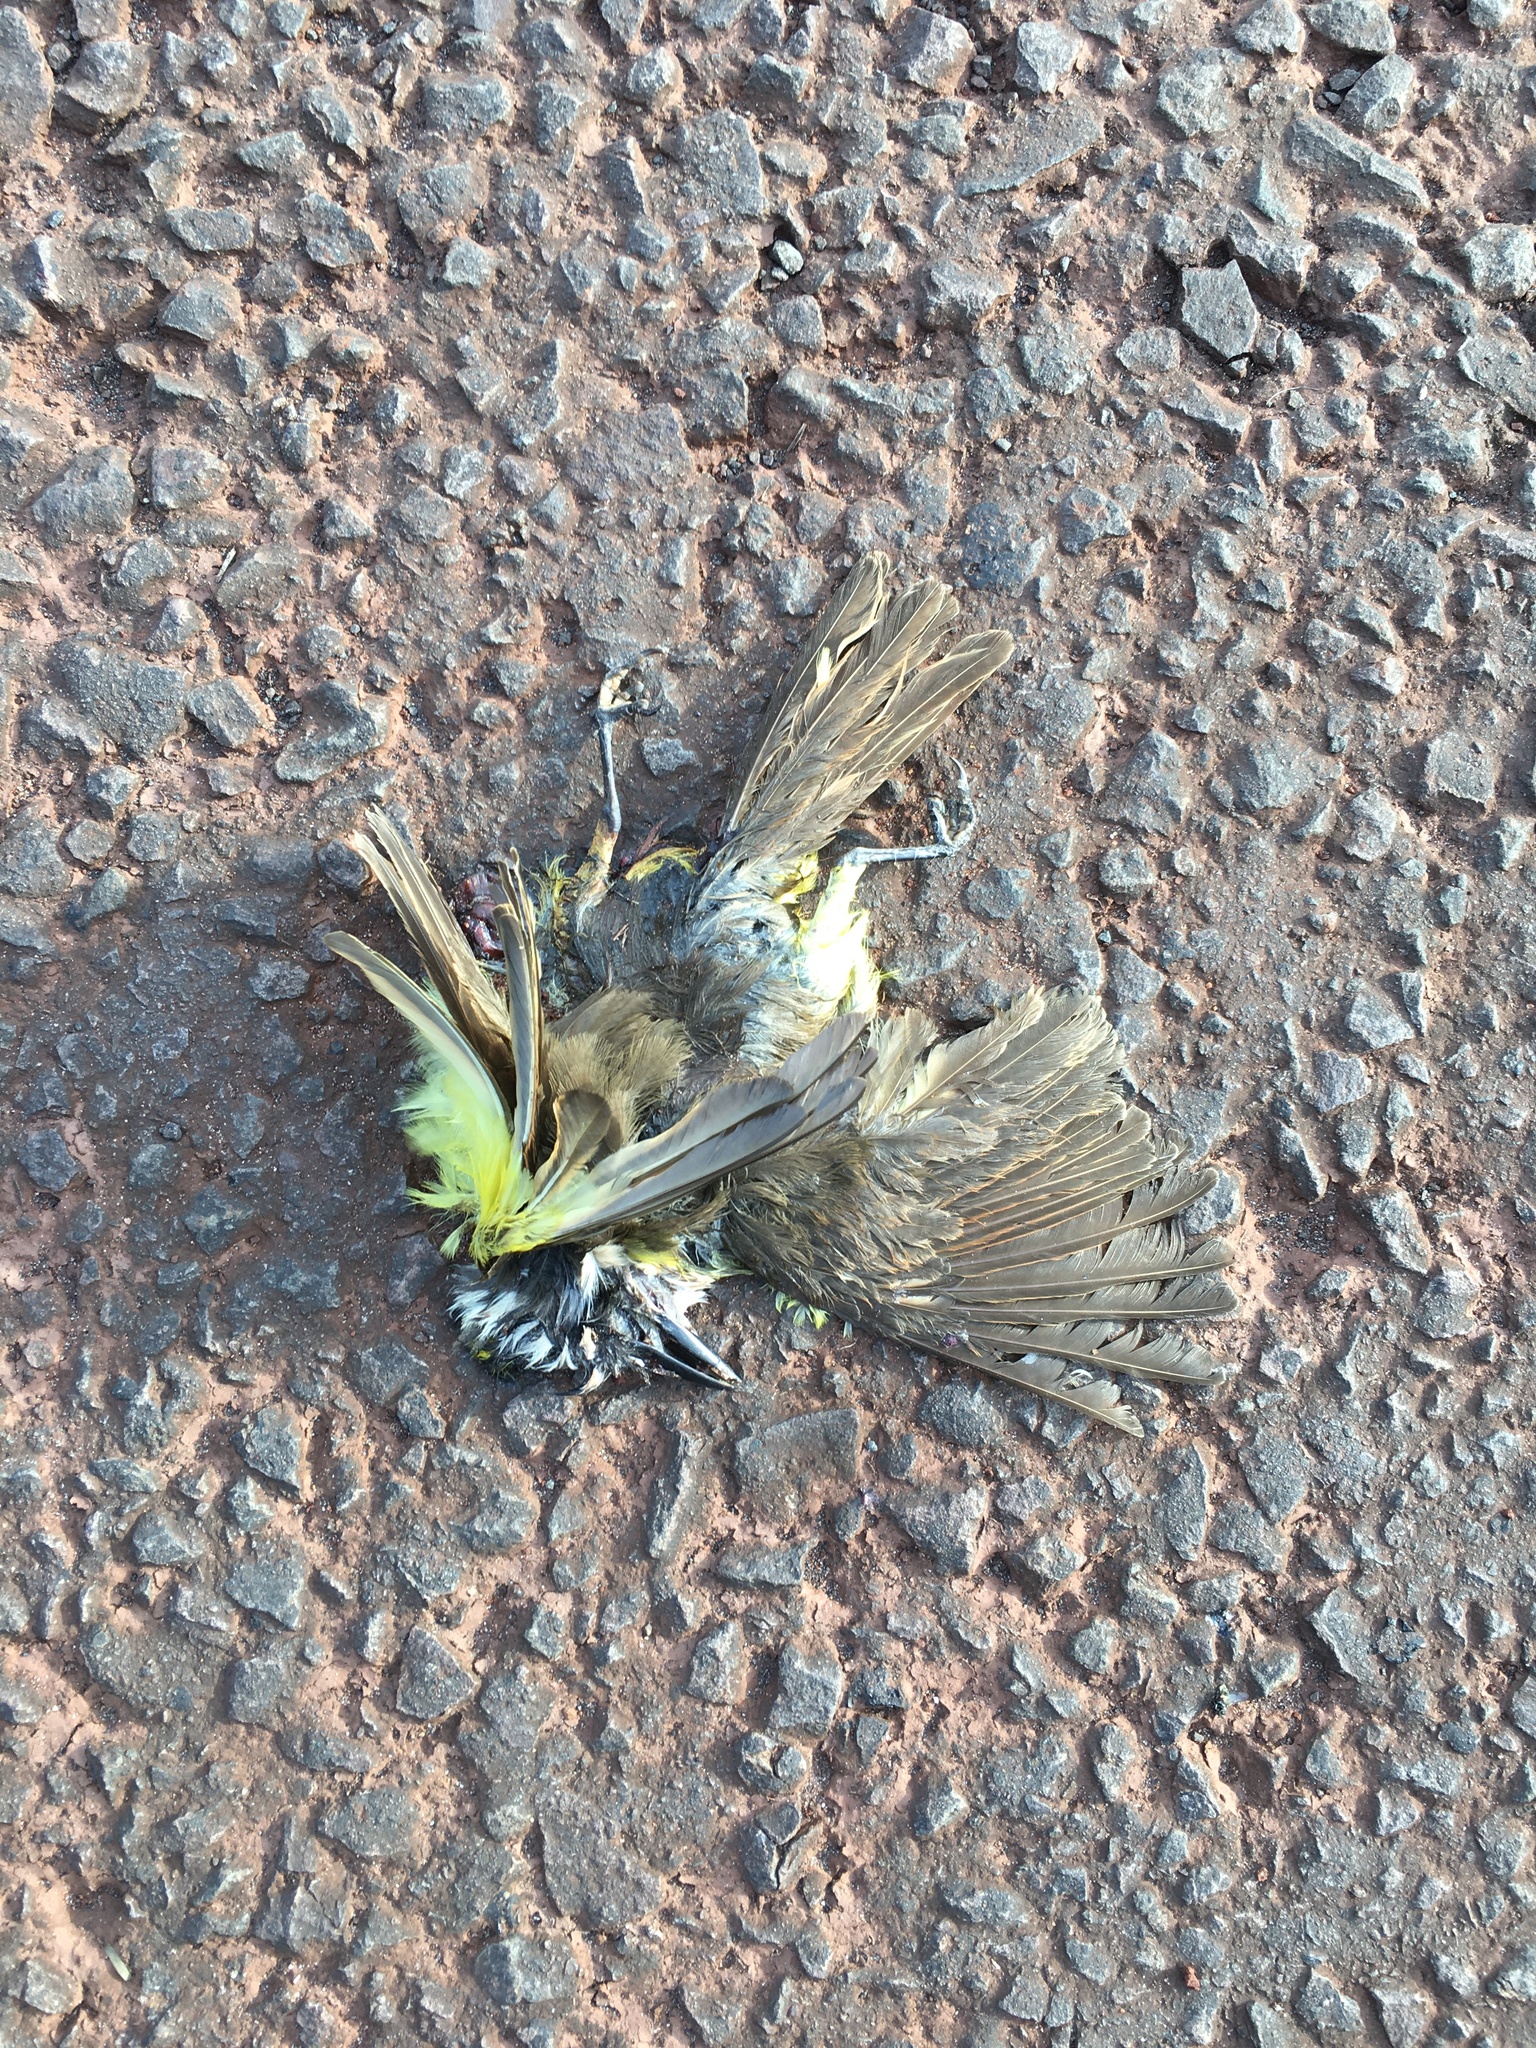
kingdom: Animalia
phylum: Chordata
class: Aves
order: Passeriformes
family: Tyrannidae
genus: Pitangus
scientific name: Pitangus sulphuratus
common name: Great kiskadee
